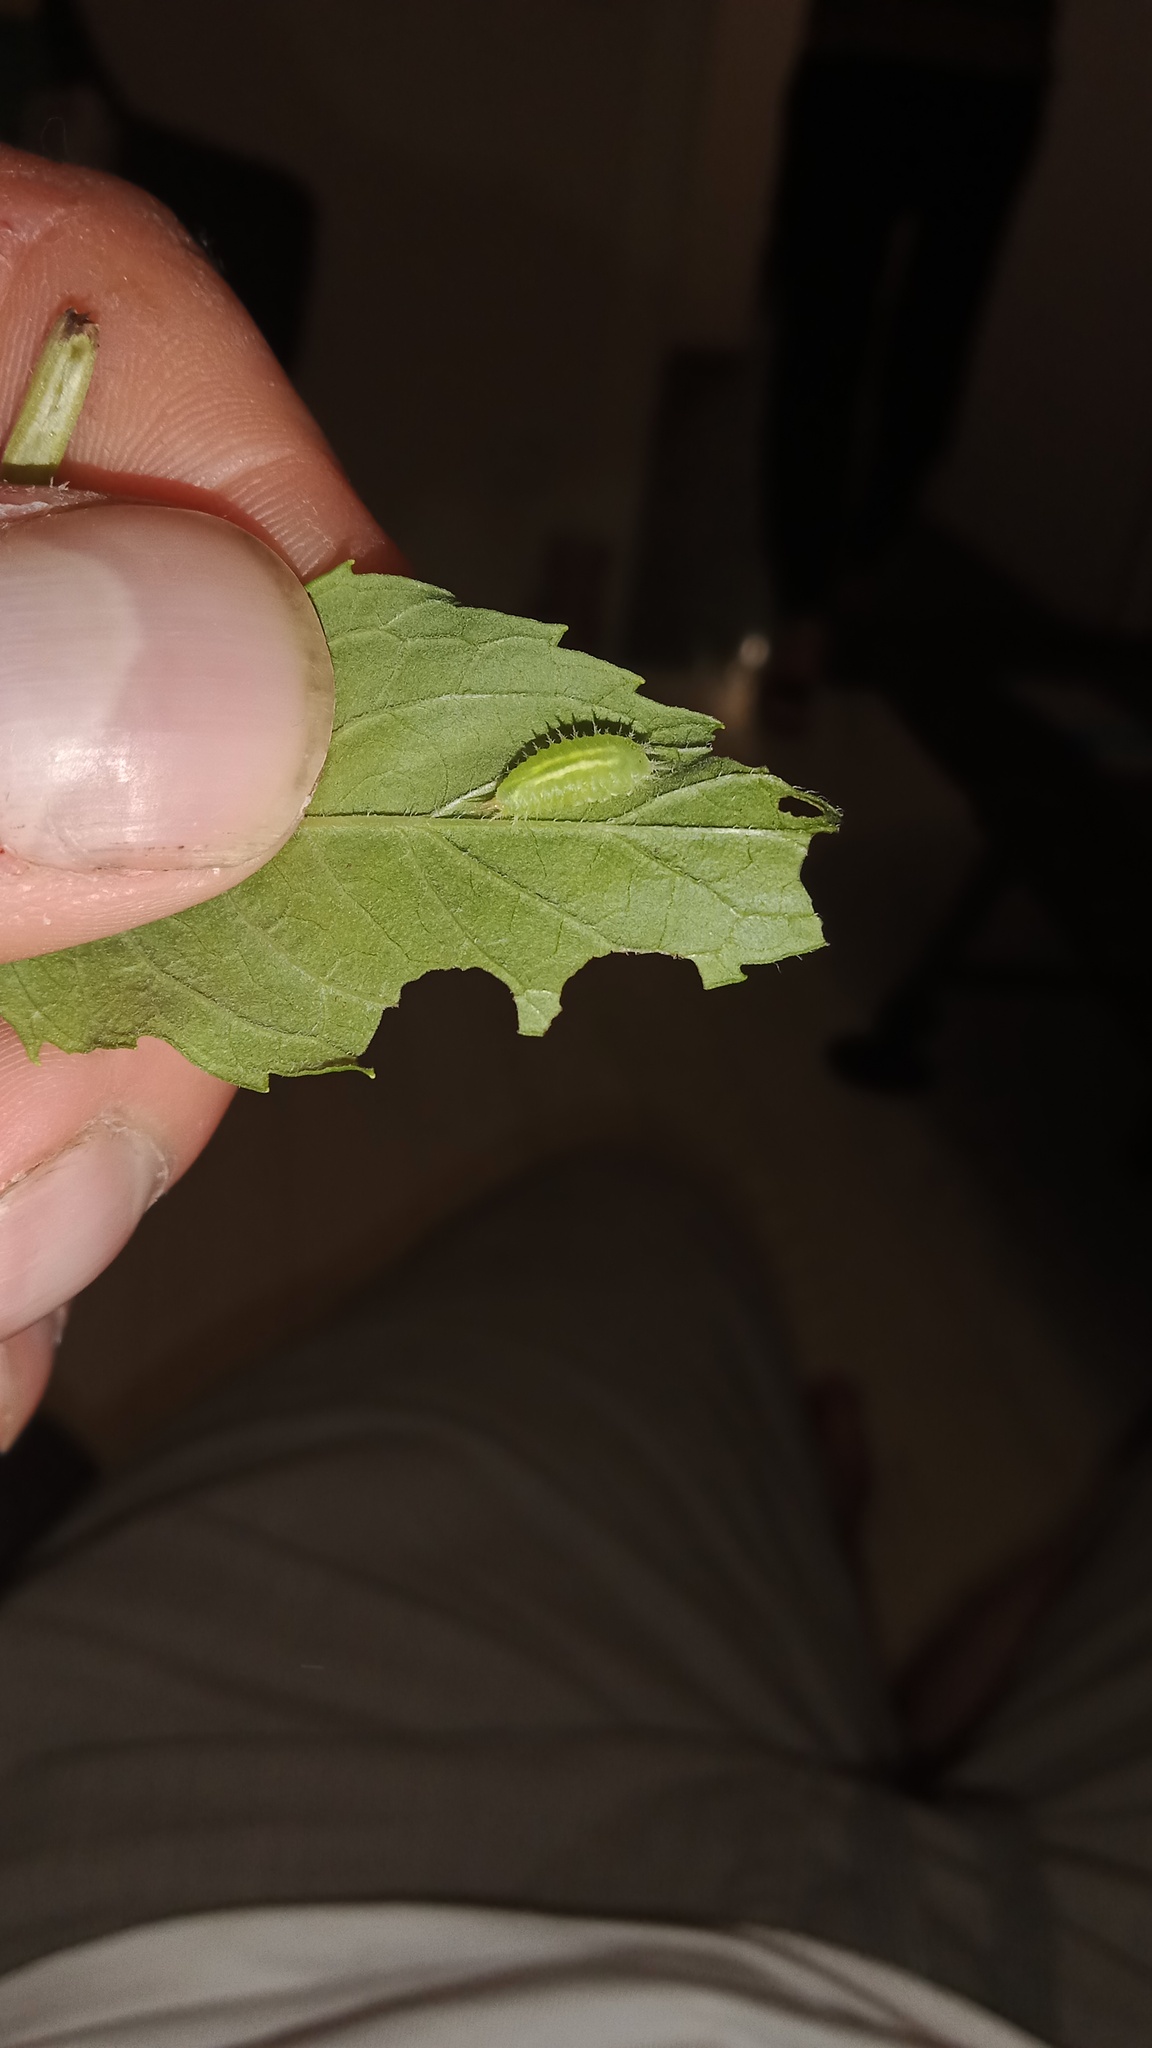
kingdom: Animalia
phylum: Arthropoda
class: Insecta
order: Coleoptera
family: Chrysomelidae
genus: Cassida
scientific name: Cassida viridis
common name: Green tortoise beetle
